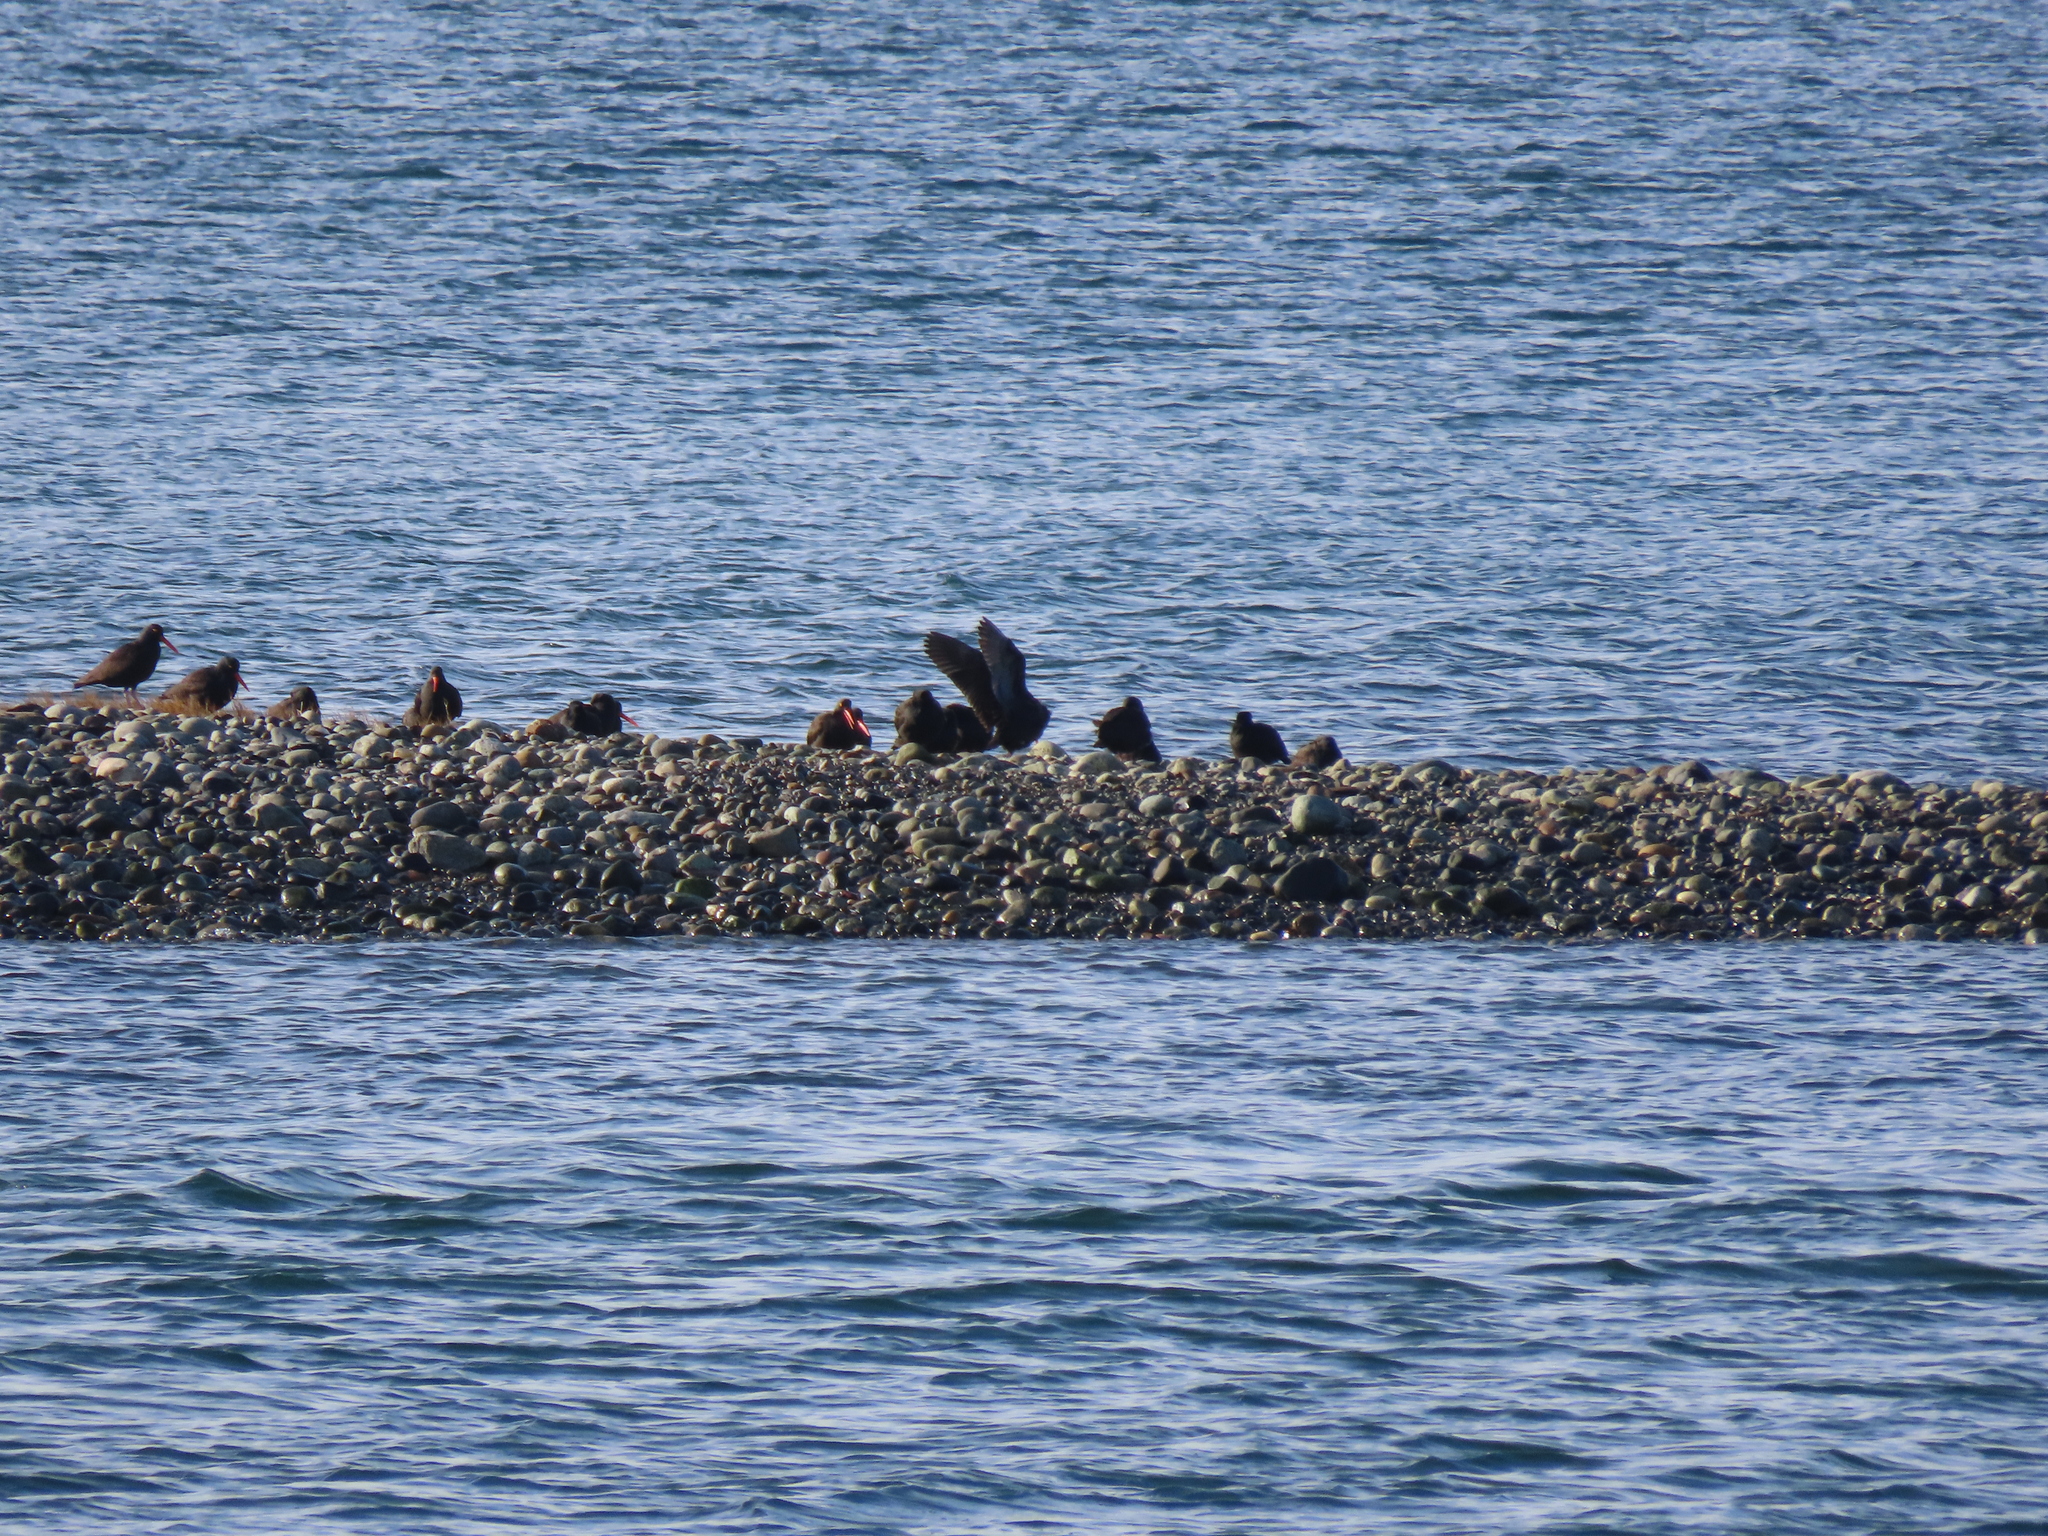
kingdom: Animalia
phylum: Chordata
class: Aves
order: Charadriiformes
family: Haematopodidae
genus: Haematopus
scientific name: Haematopus bachmani
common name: Black oystercatcher
